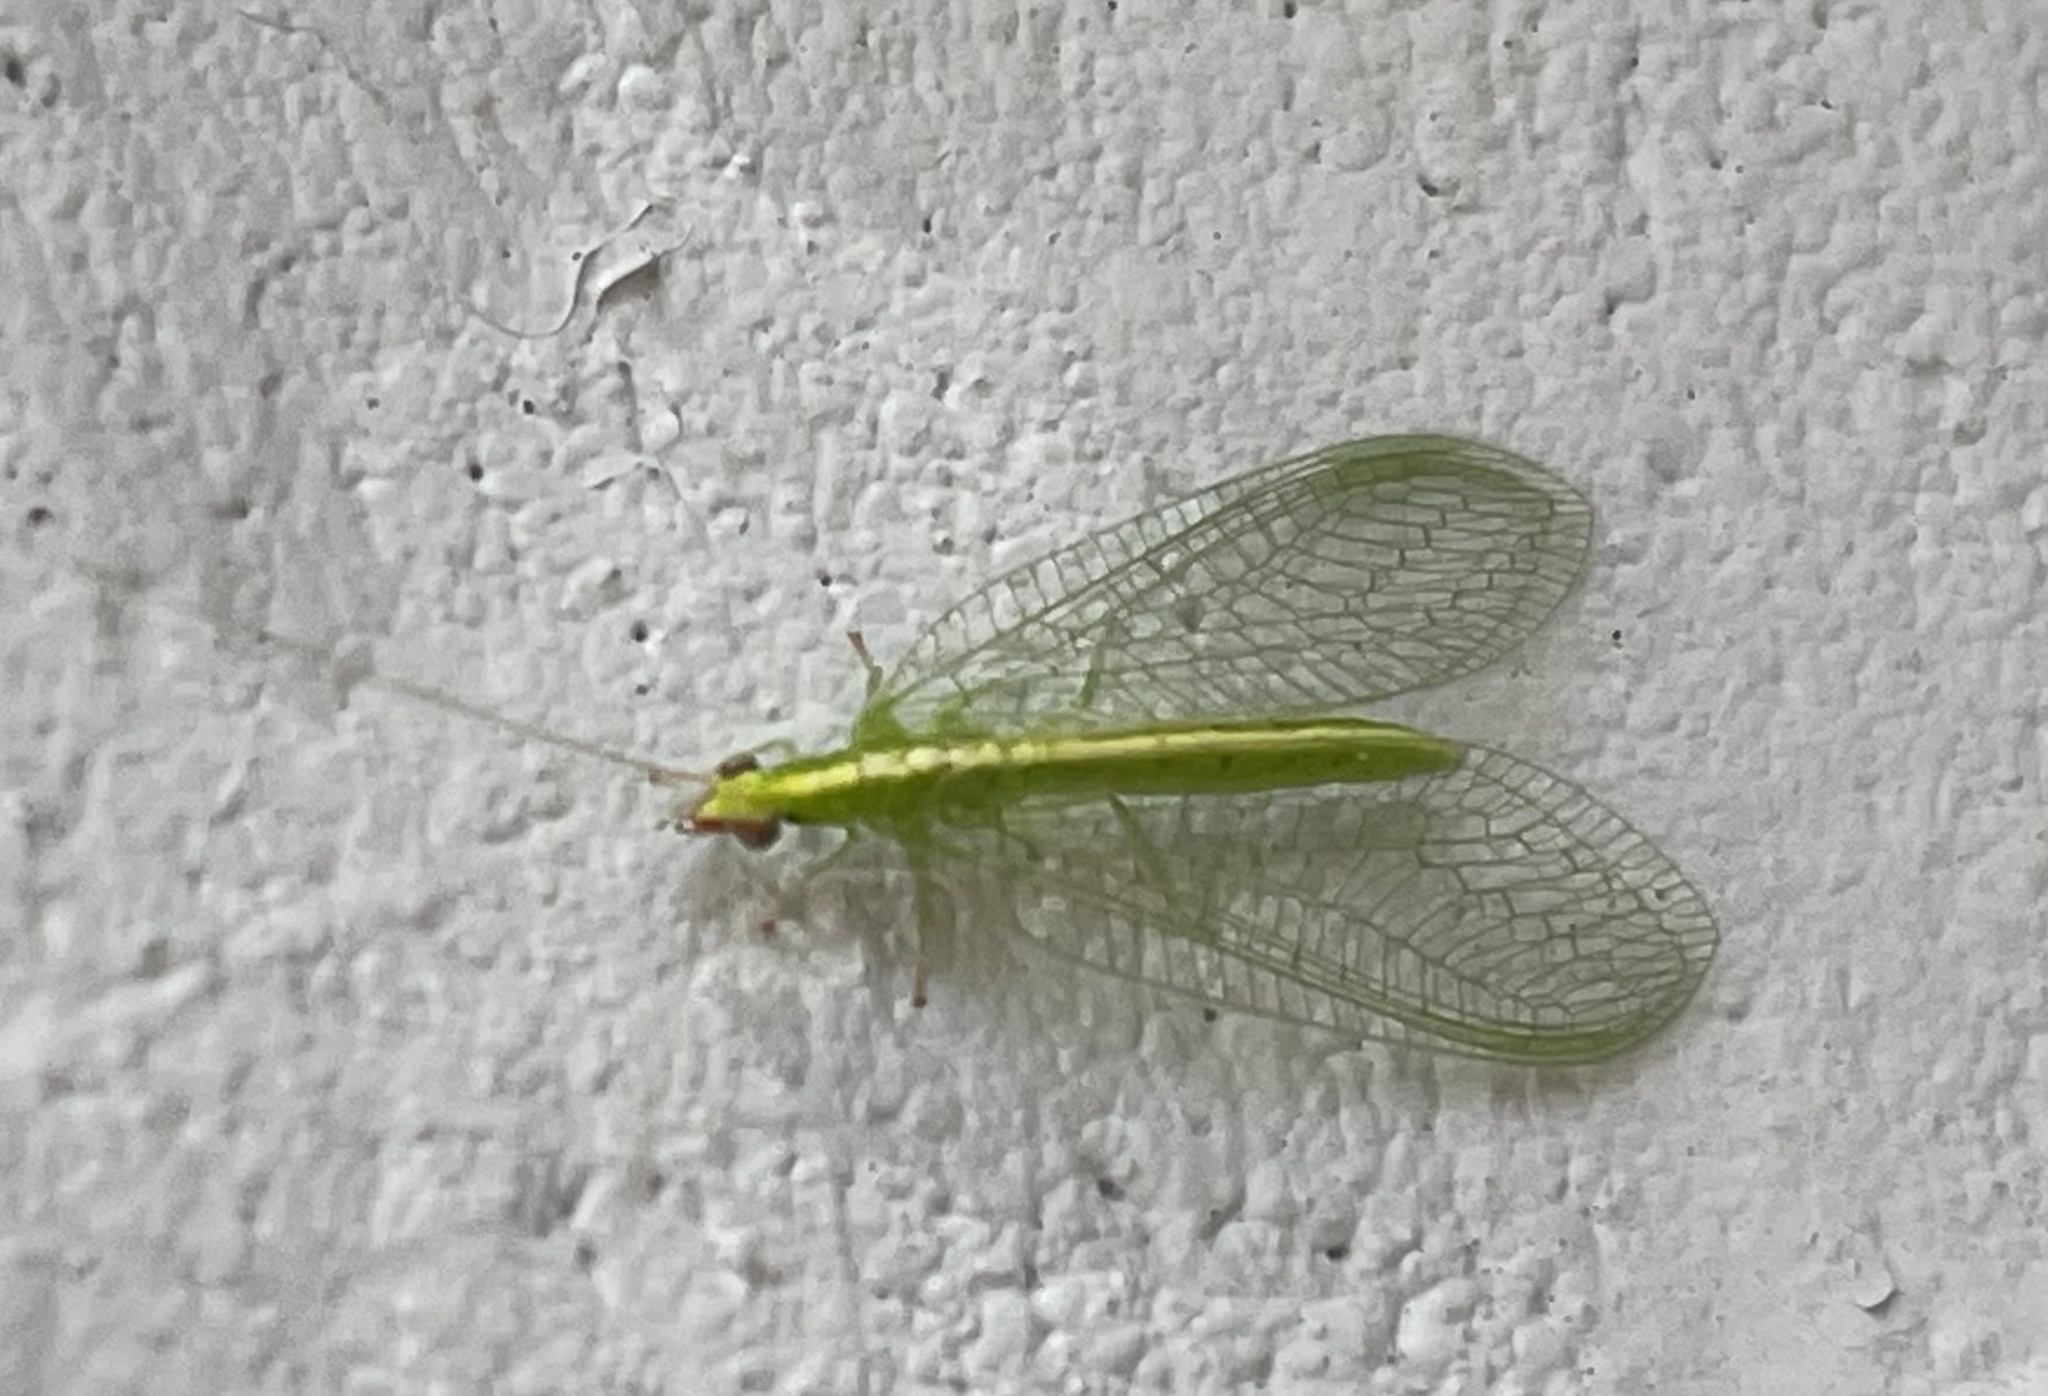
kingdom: Animalia
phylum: Arthropoda
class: Insecta
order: Neuroptera
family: Chrysopidae
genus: Chrysoperla
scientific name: Chrysoperla rufilabris
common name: Red-lipped green lacewing
